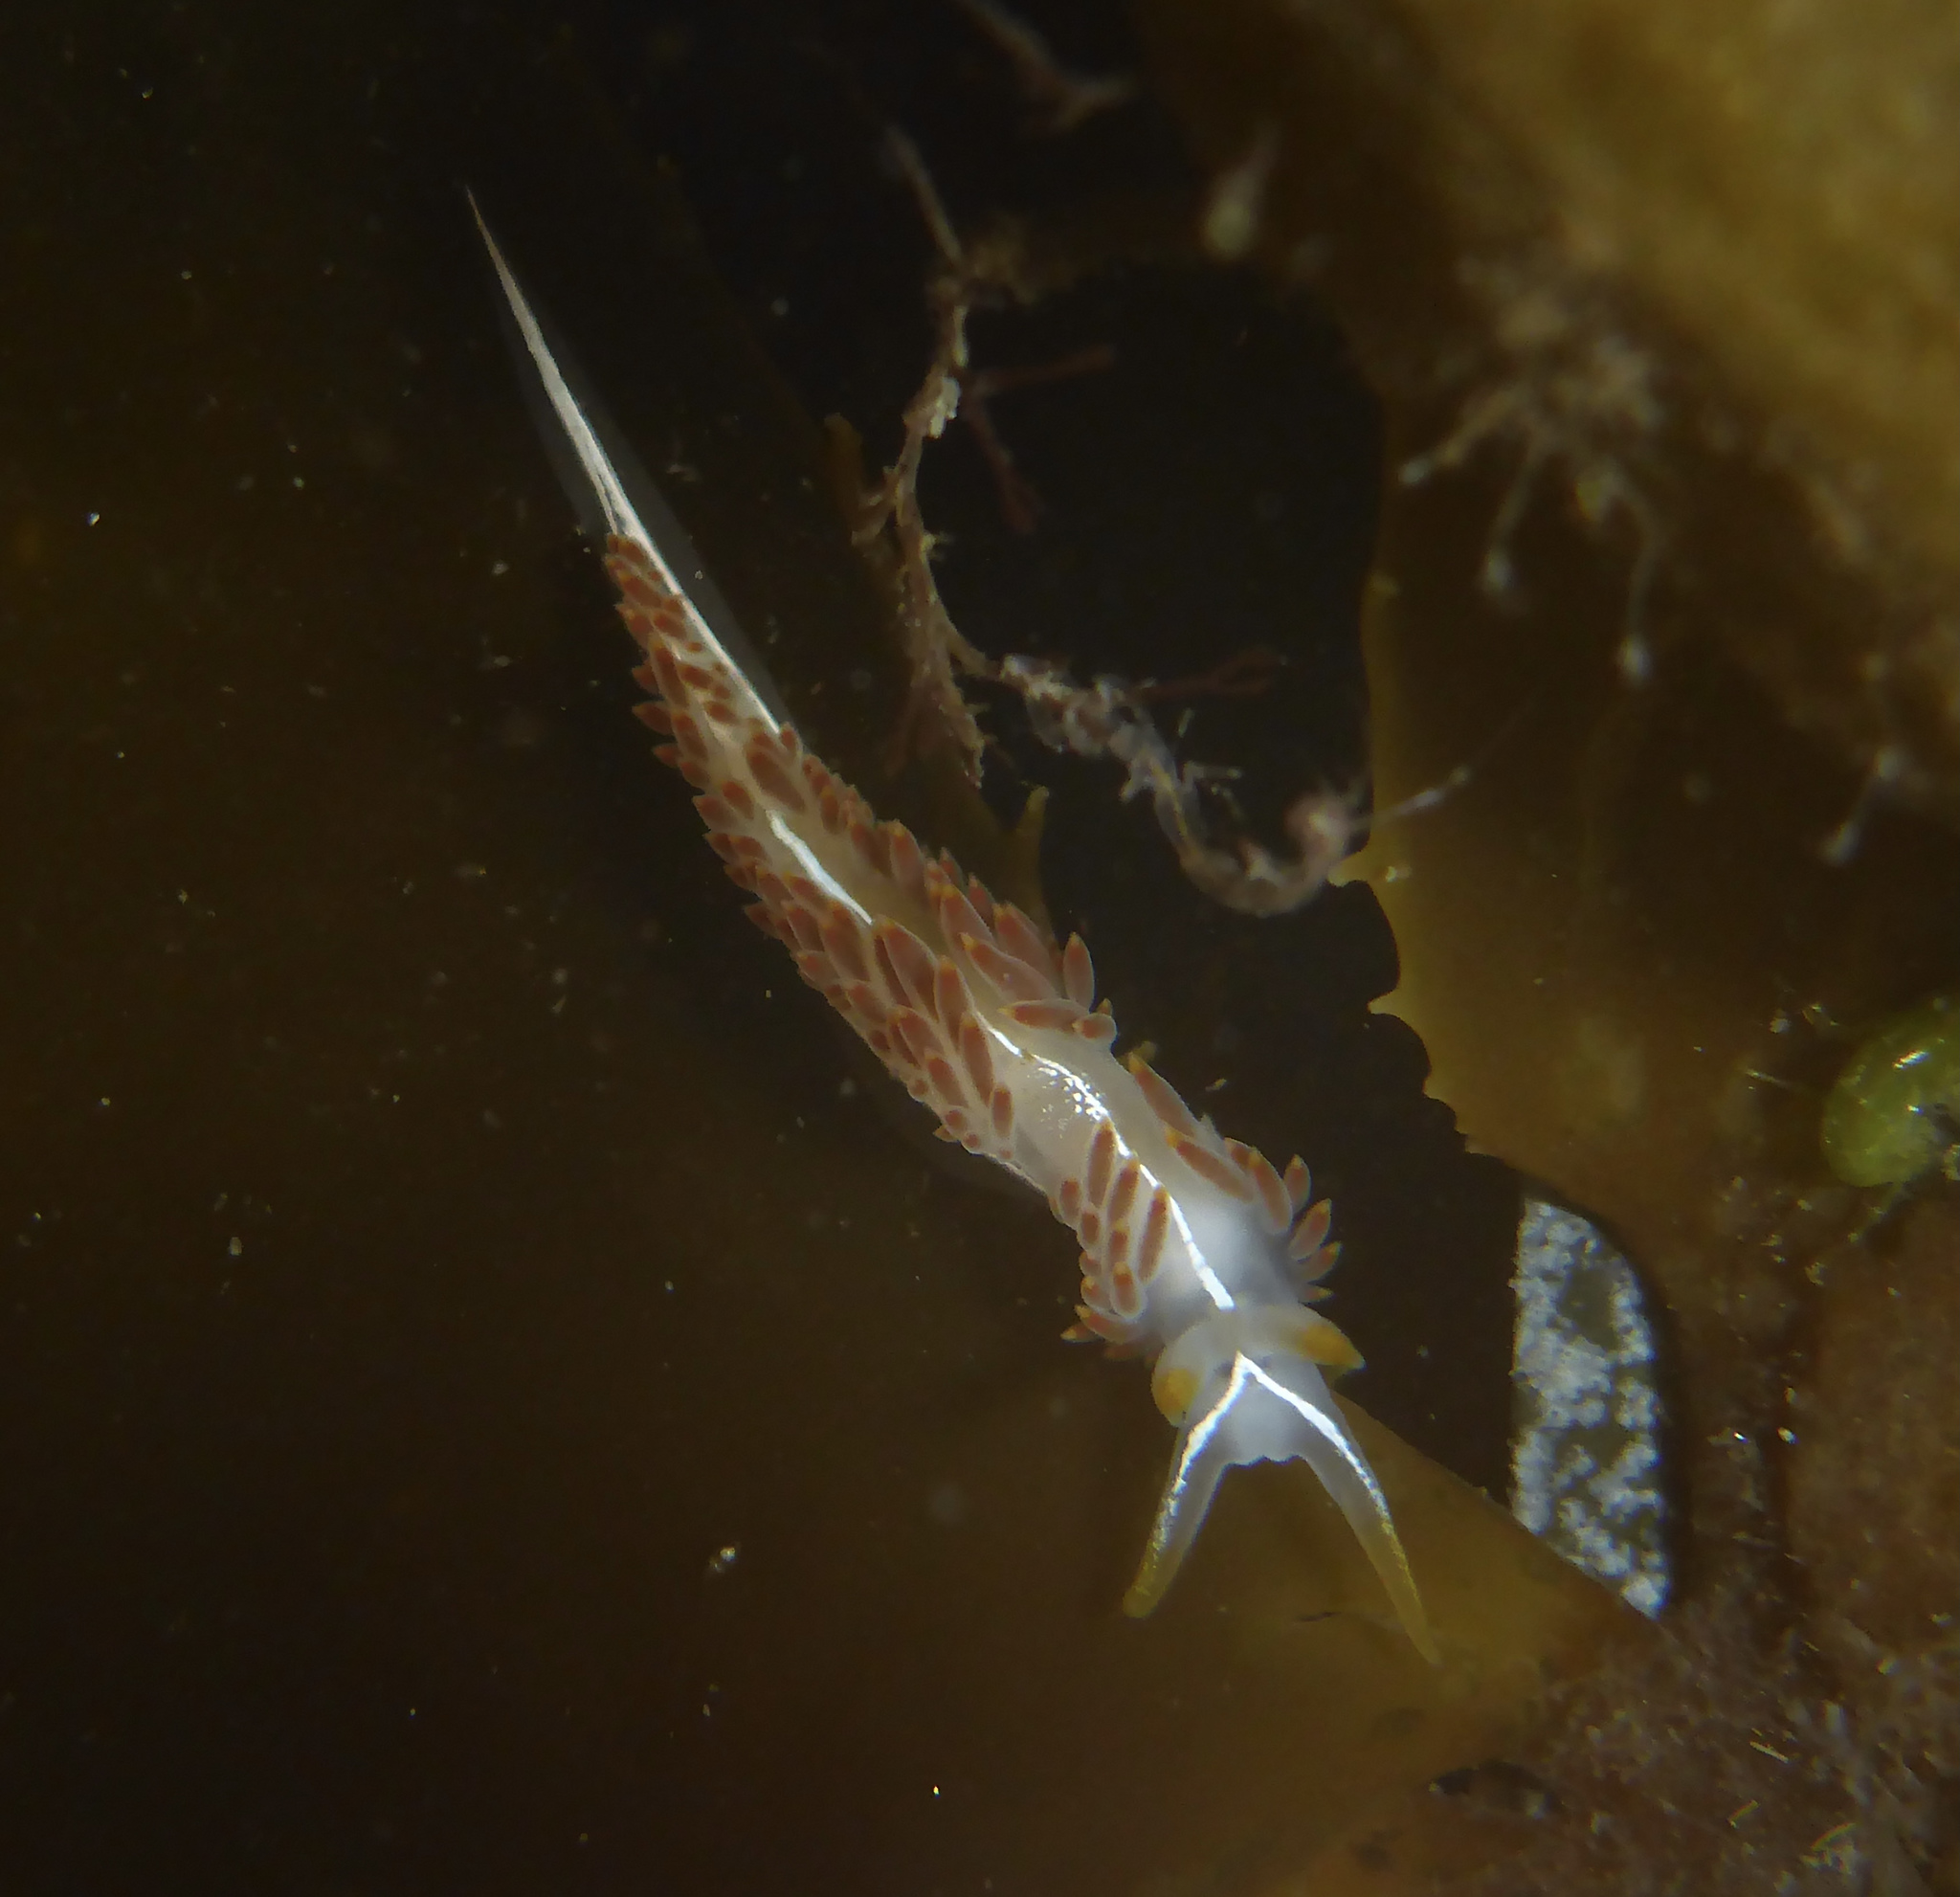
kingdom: Animalia
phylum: Mollusca
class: Gastropoda
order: Nudibranchia
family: Coryphellidae
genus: Coryphella
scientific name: Coryphella trilineata
